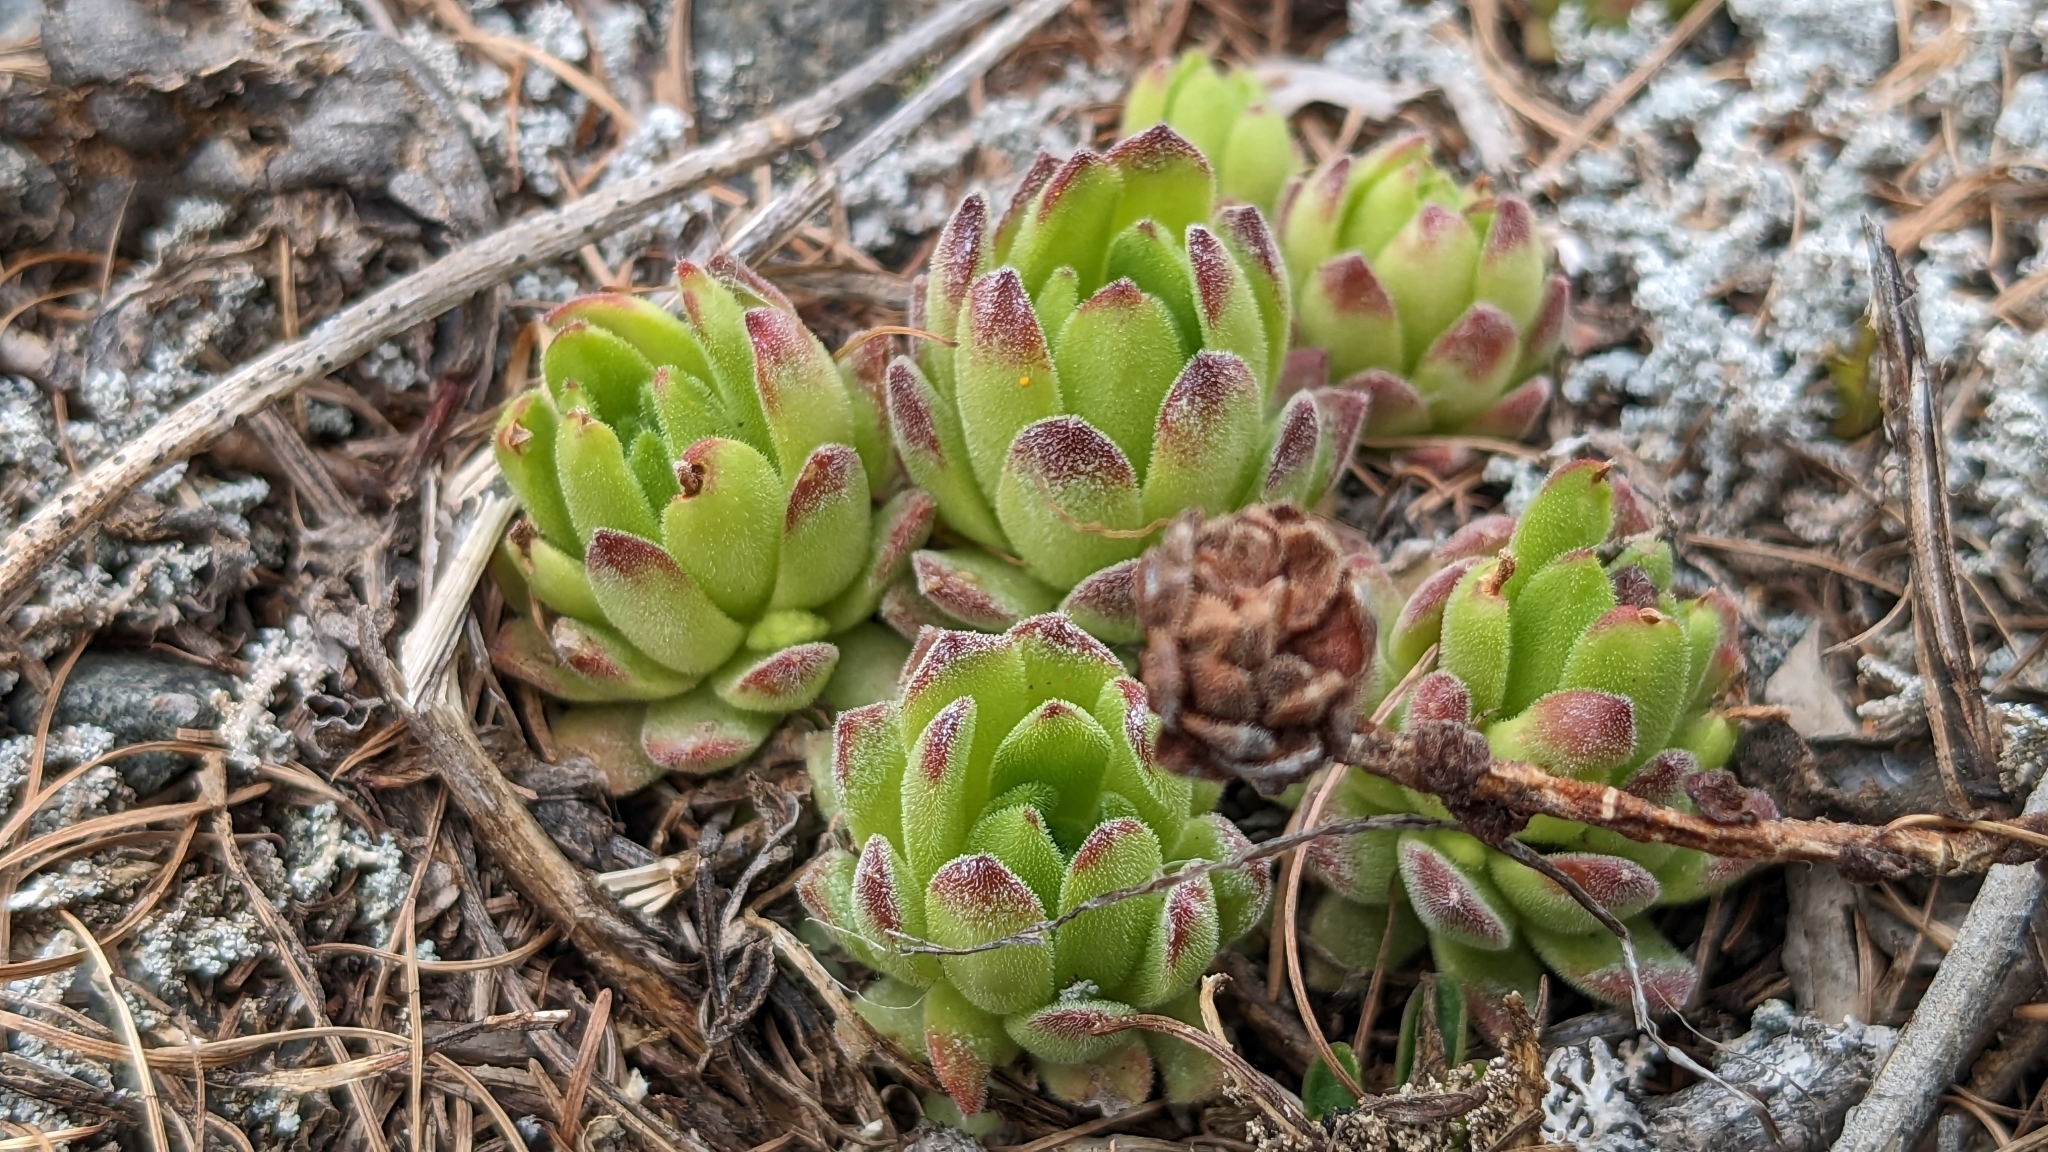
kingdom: Plantae
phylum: Tracheophyta
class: Magnoliopsida
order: Saxifragales
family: Crassulaceae
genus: Sempervivum
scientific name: Sempervivum montanum
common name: Mountain house-leek
